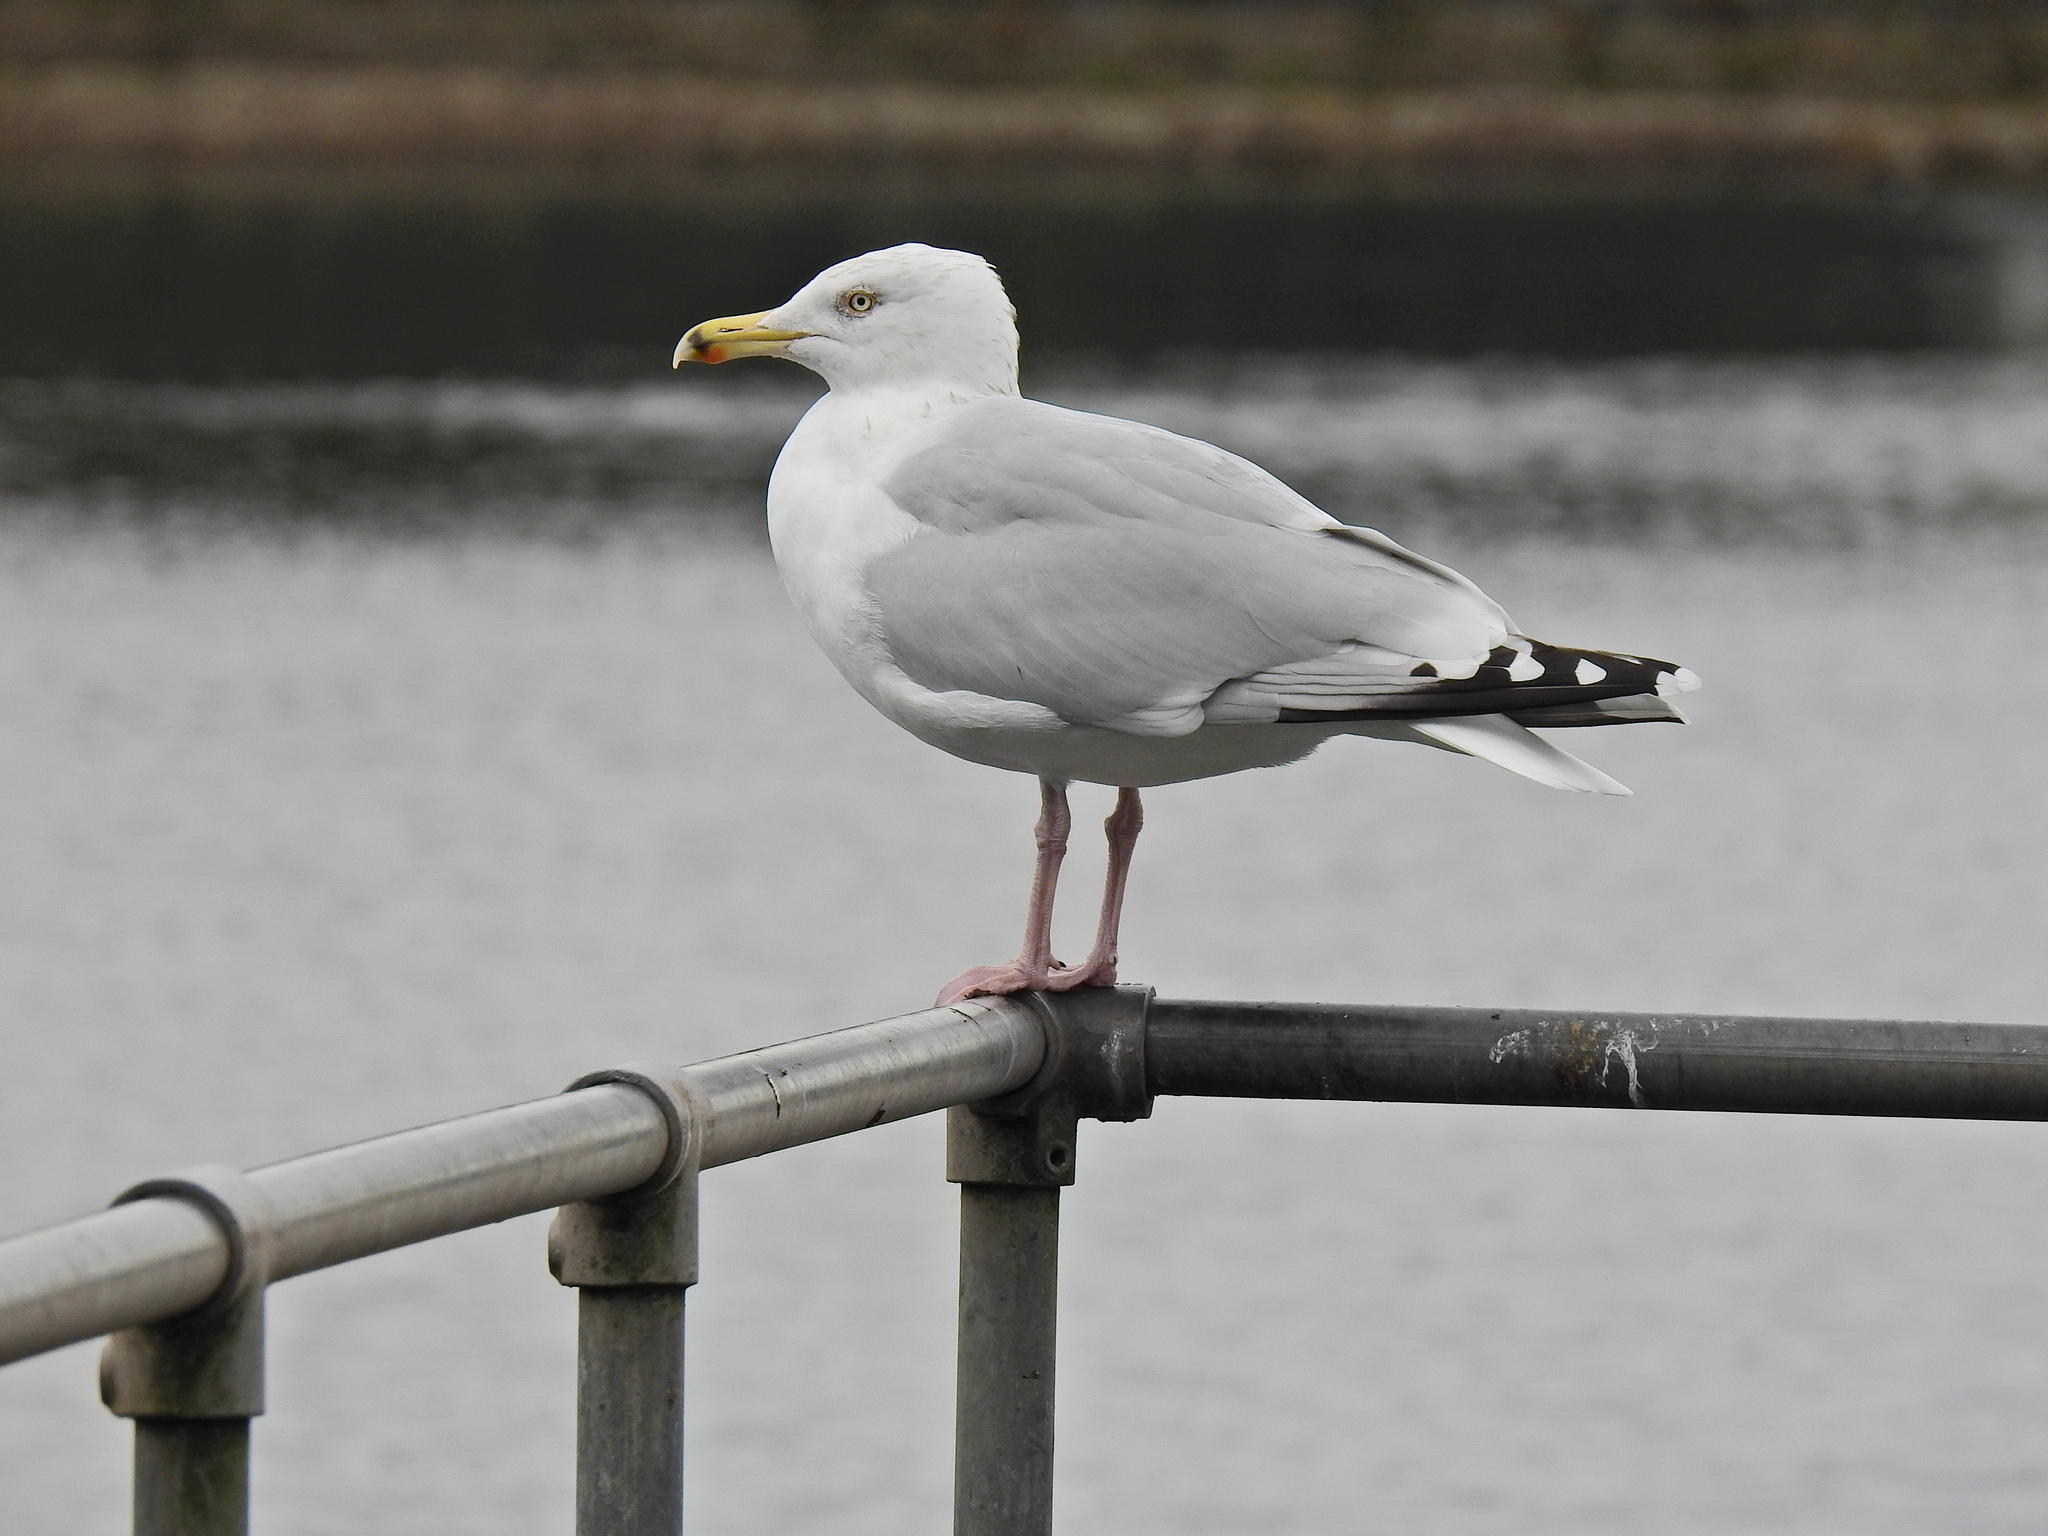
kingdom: Animalia
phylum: Chordata
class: Aves
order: Charadriiformes
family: Laridae
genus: Larus
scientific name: Larus argentatus
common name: Herring gull
